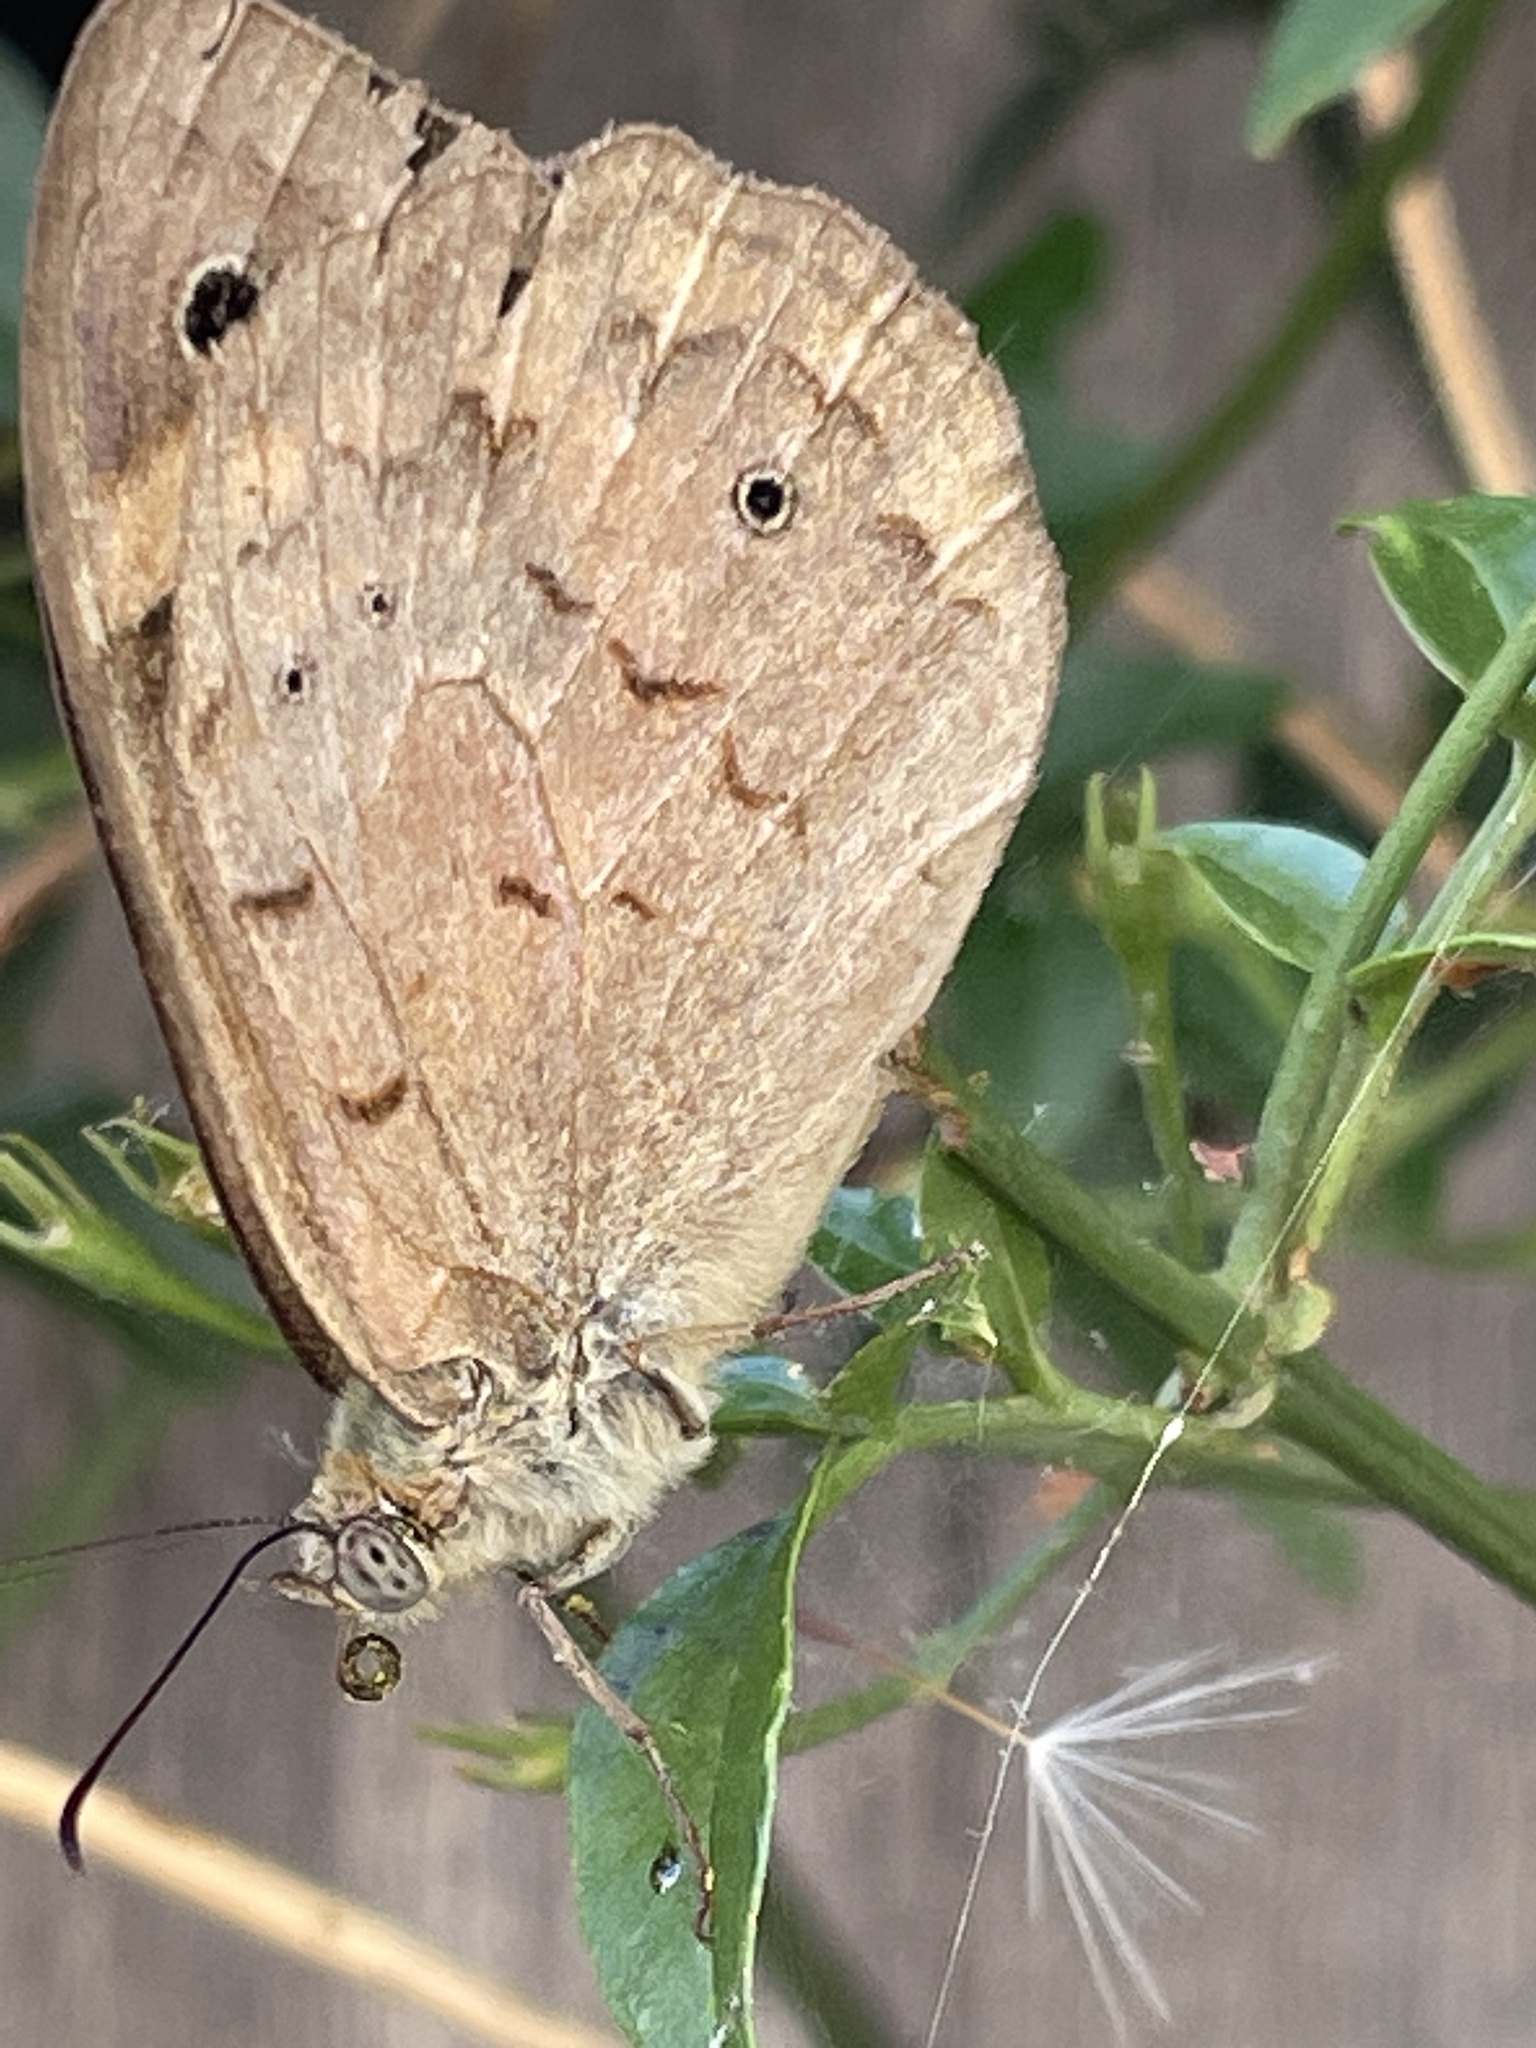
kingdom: Animalia
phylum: Arthropoda
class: Insecta
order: Lepidoptera
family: Nymphalidae
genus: Heteronympha
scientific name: Heteronympha merope
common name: Common brown
